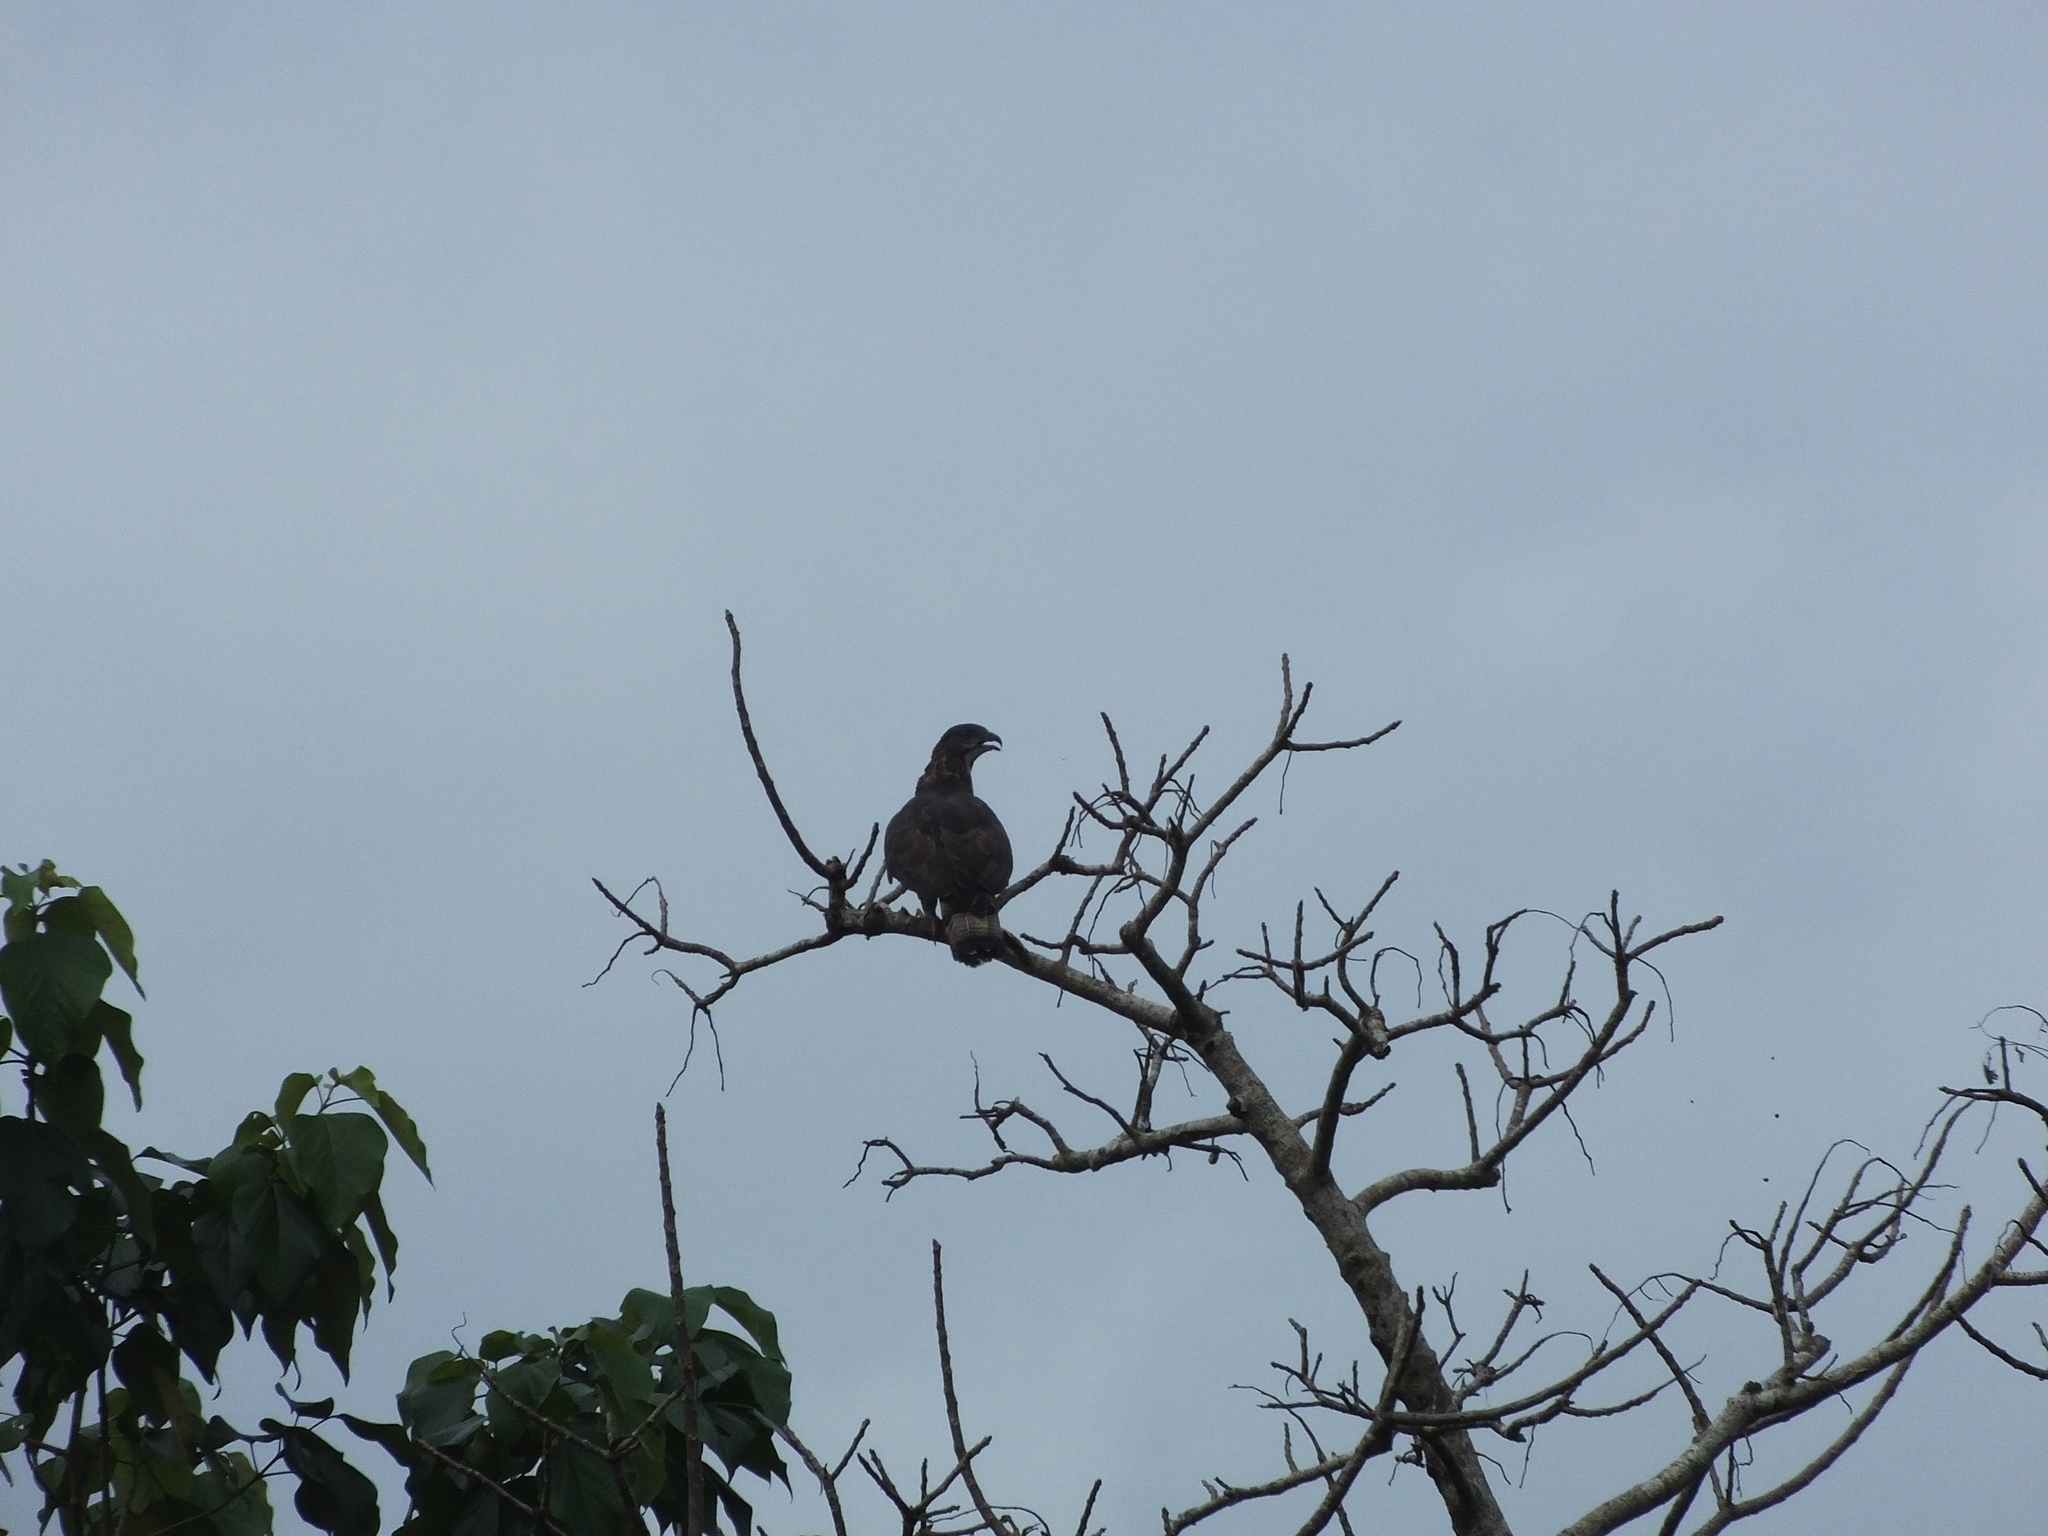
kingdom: Animalia
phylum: Chordata
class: Aves
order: Accipitriformes
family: Accipitridae
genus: Pernis
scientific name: Pernis celebensis
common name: Barred honey buzzard
